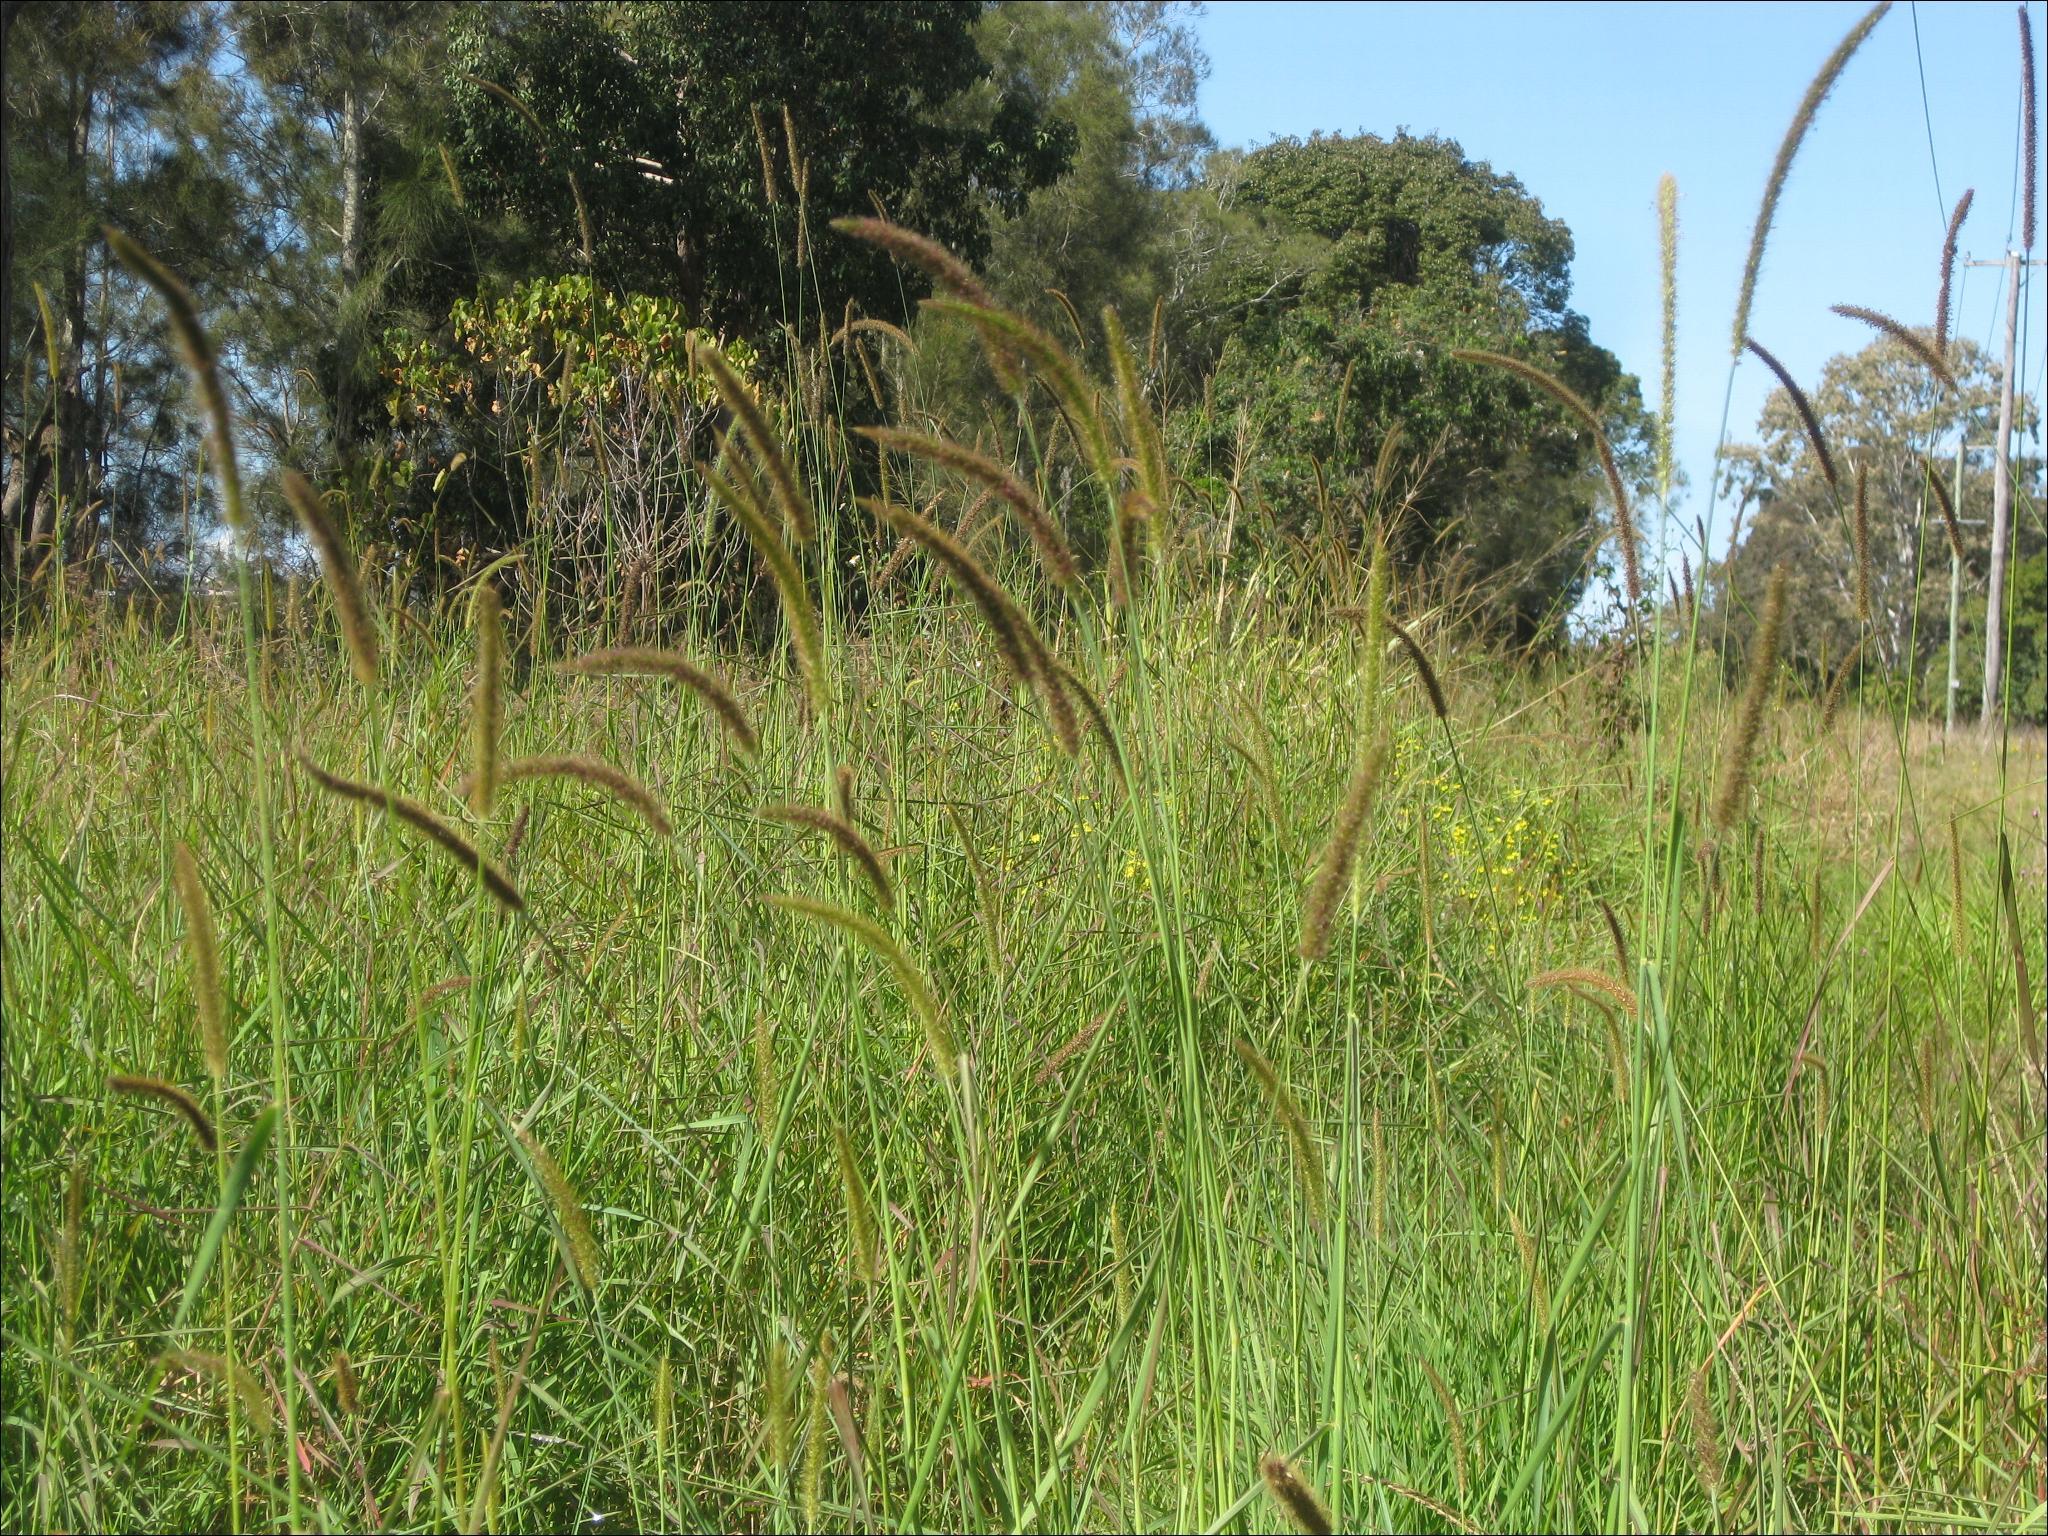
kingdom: Plantae
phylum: Tracheophyta
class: Liliopsida
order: Poales
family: Poaceae
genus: Setaria
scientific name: Setaria sphacelata
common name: African bristlegrass
